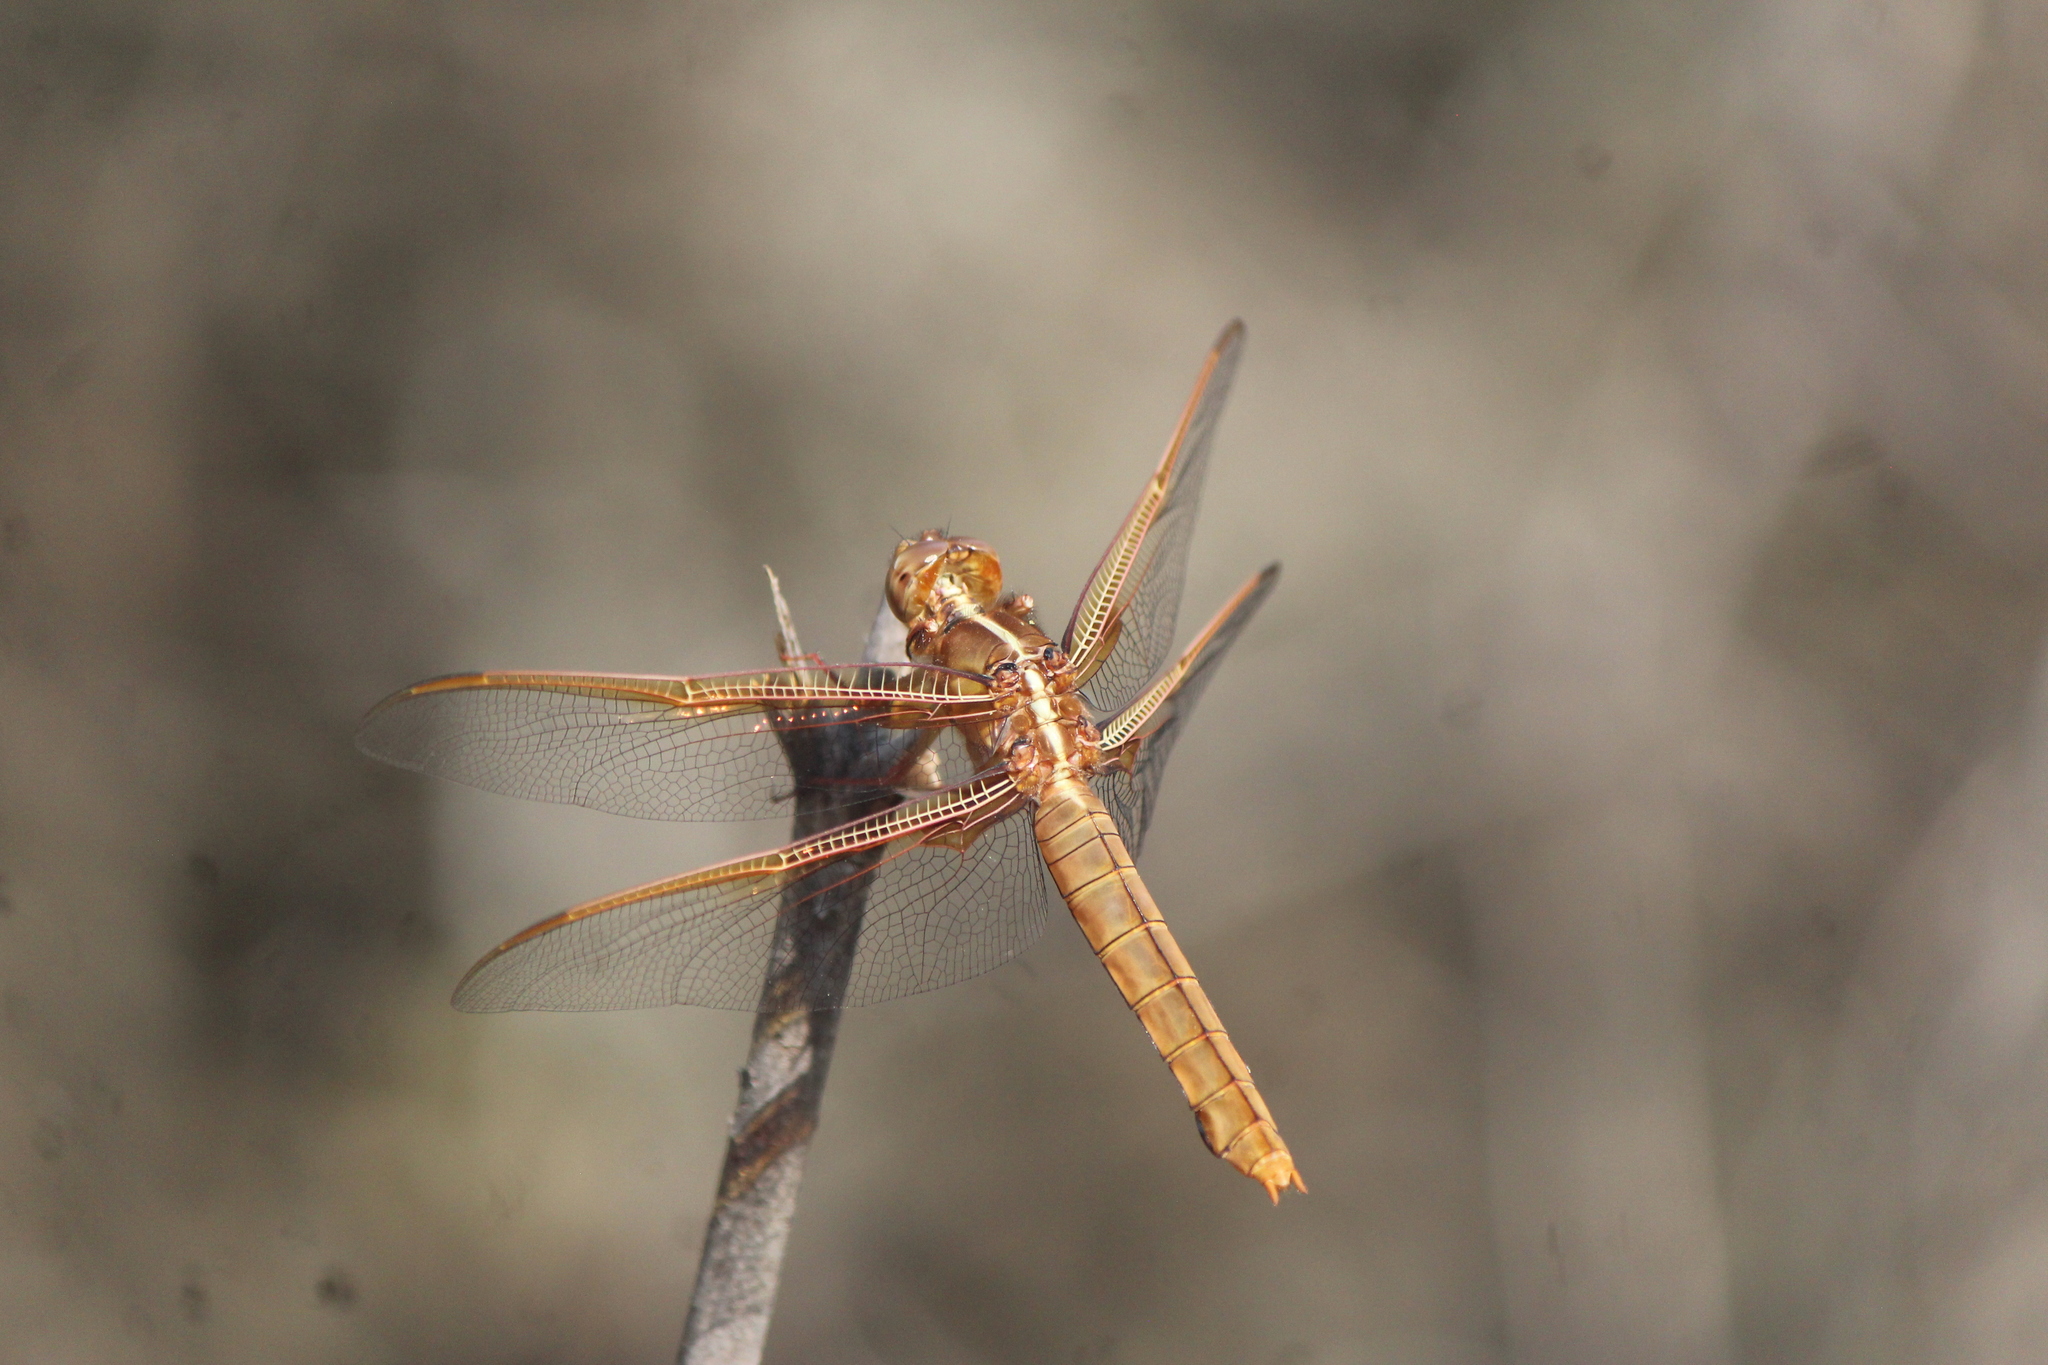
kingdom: Animalia
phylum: Arthropoda
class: Insecta
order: Odonata
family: Libellulidae
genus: Libellula
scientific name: Libellula saturata
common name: Flame skimmer
